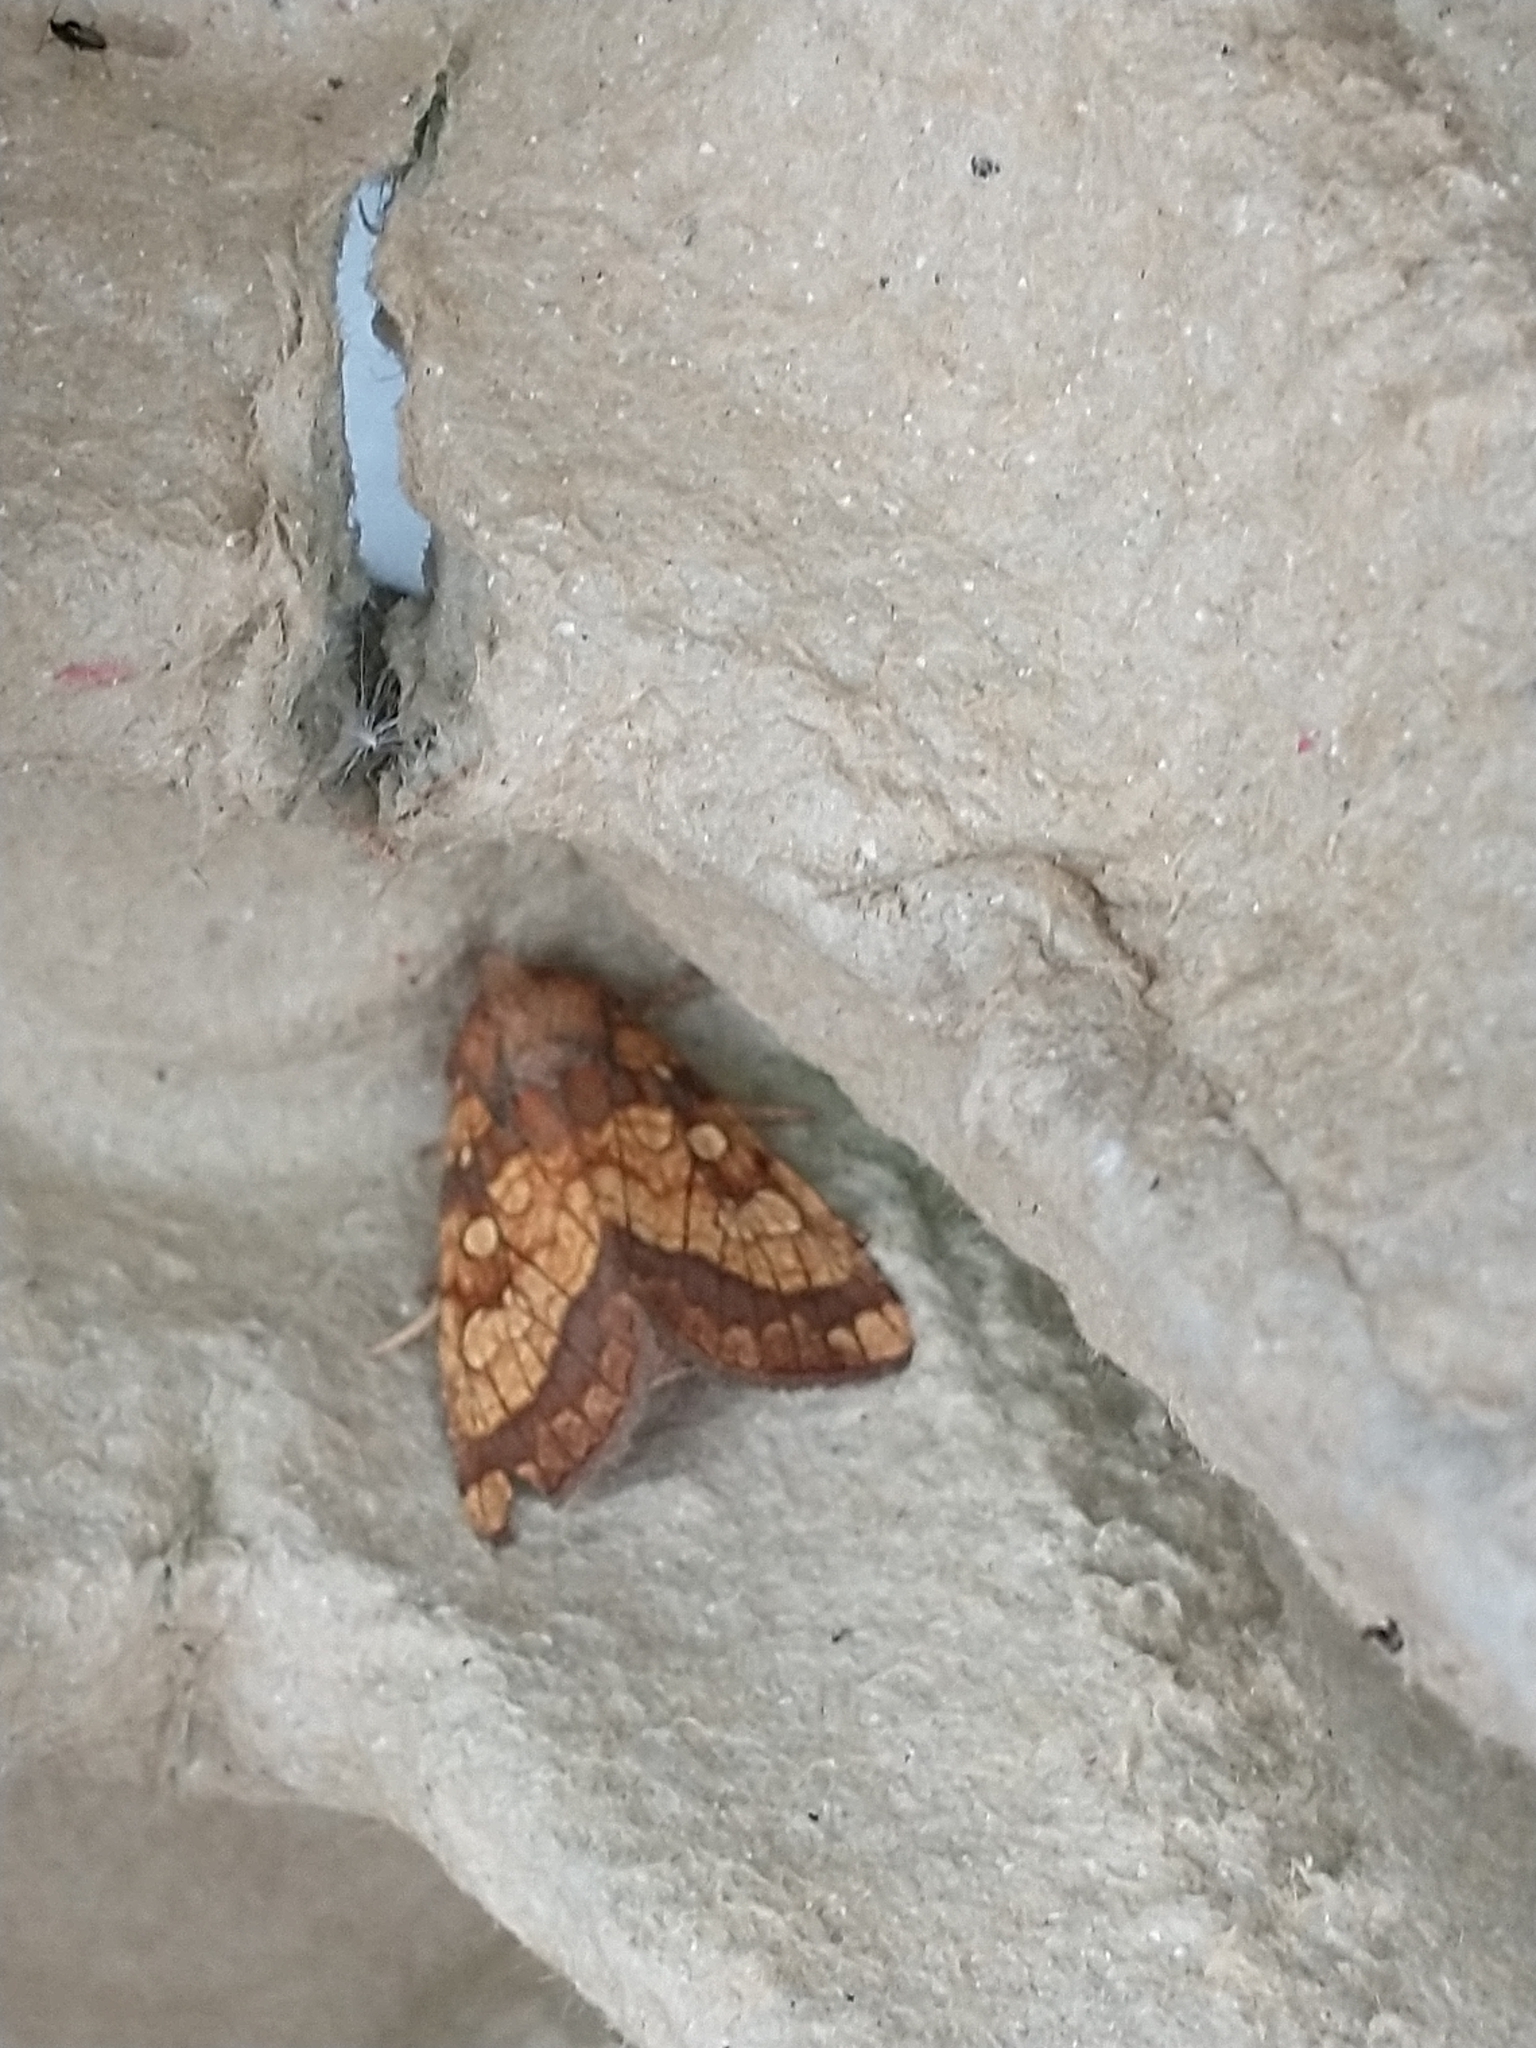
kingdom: Animalia
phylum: Arthropoda
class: Insecta
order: Lepidoptera
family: Noctuidae
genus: Gortyna
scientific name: Gortyna flavago
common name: Frosted orange
